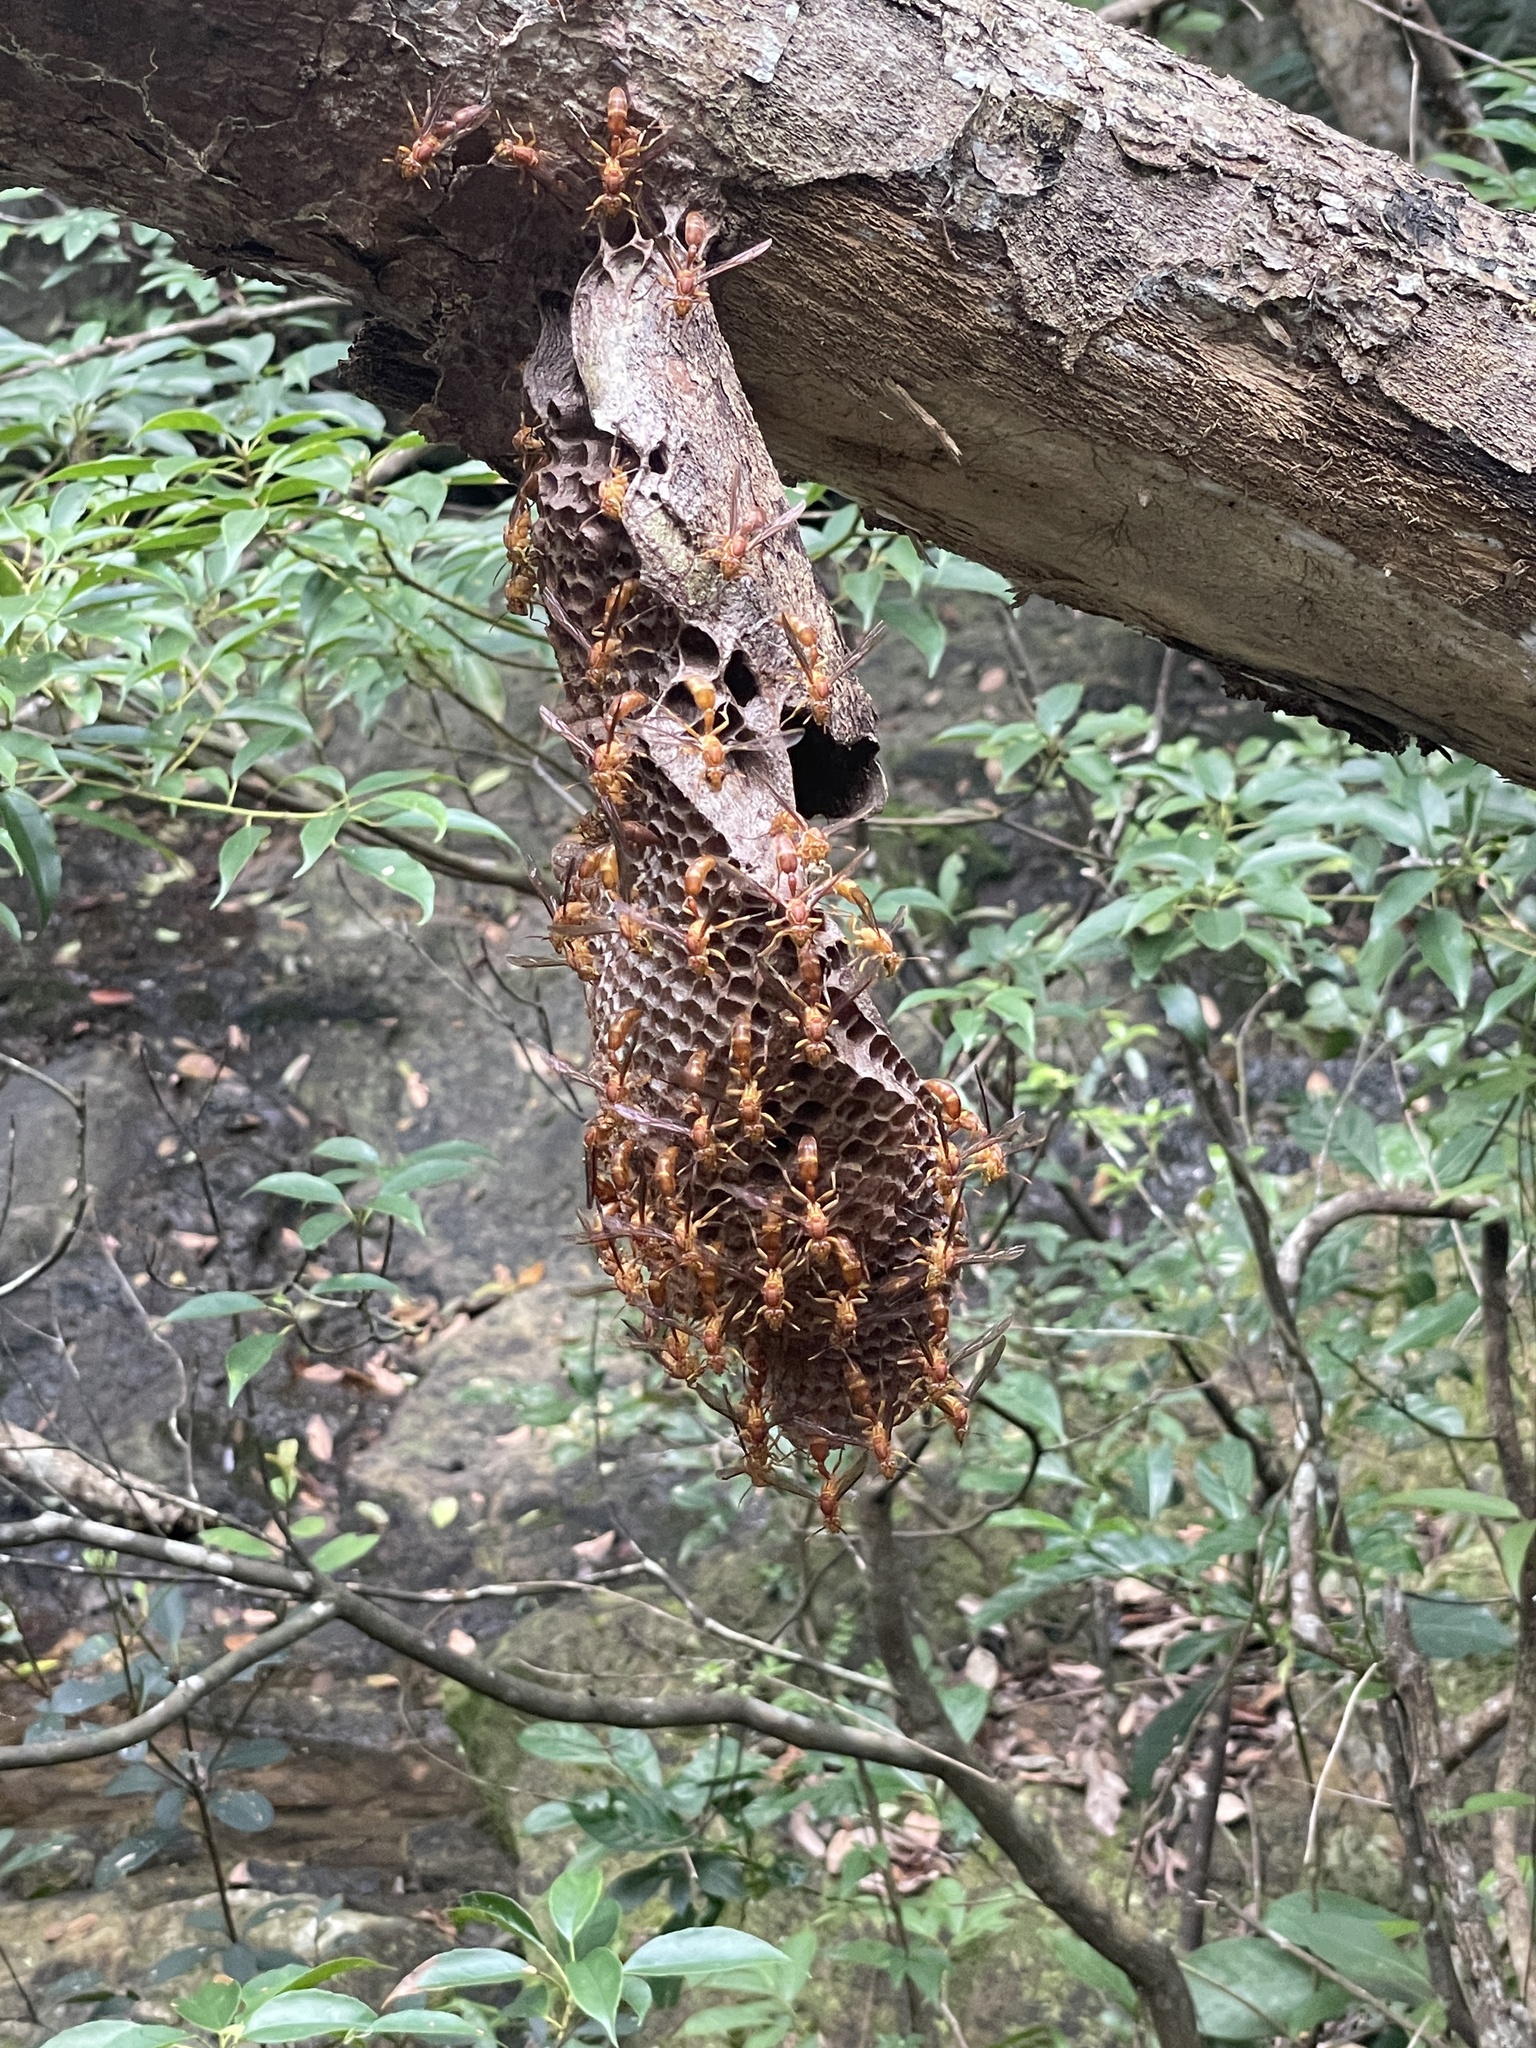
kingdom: Animalia
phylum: Arthropoda
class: Insecta
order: Hymenoptera
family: Vespidae
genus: Parapolybia
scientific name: Parapolybia indica
